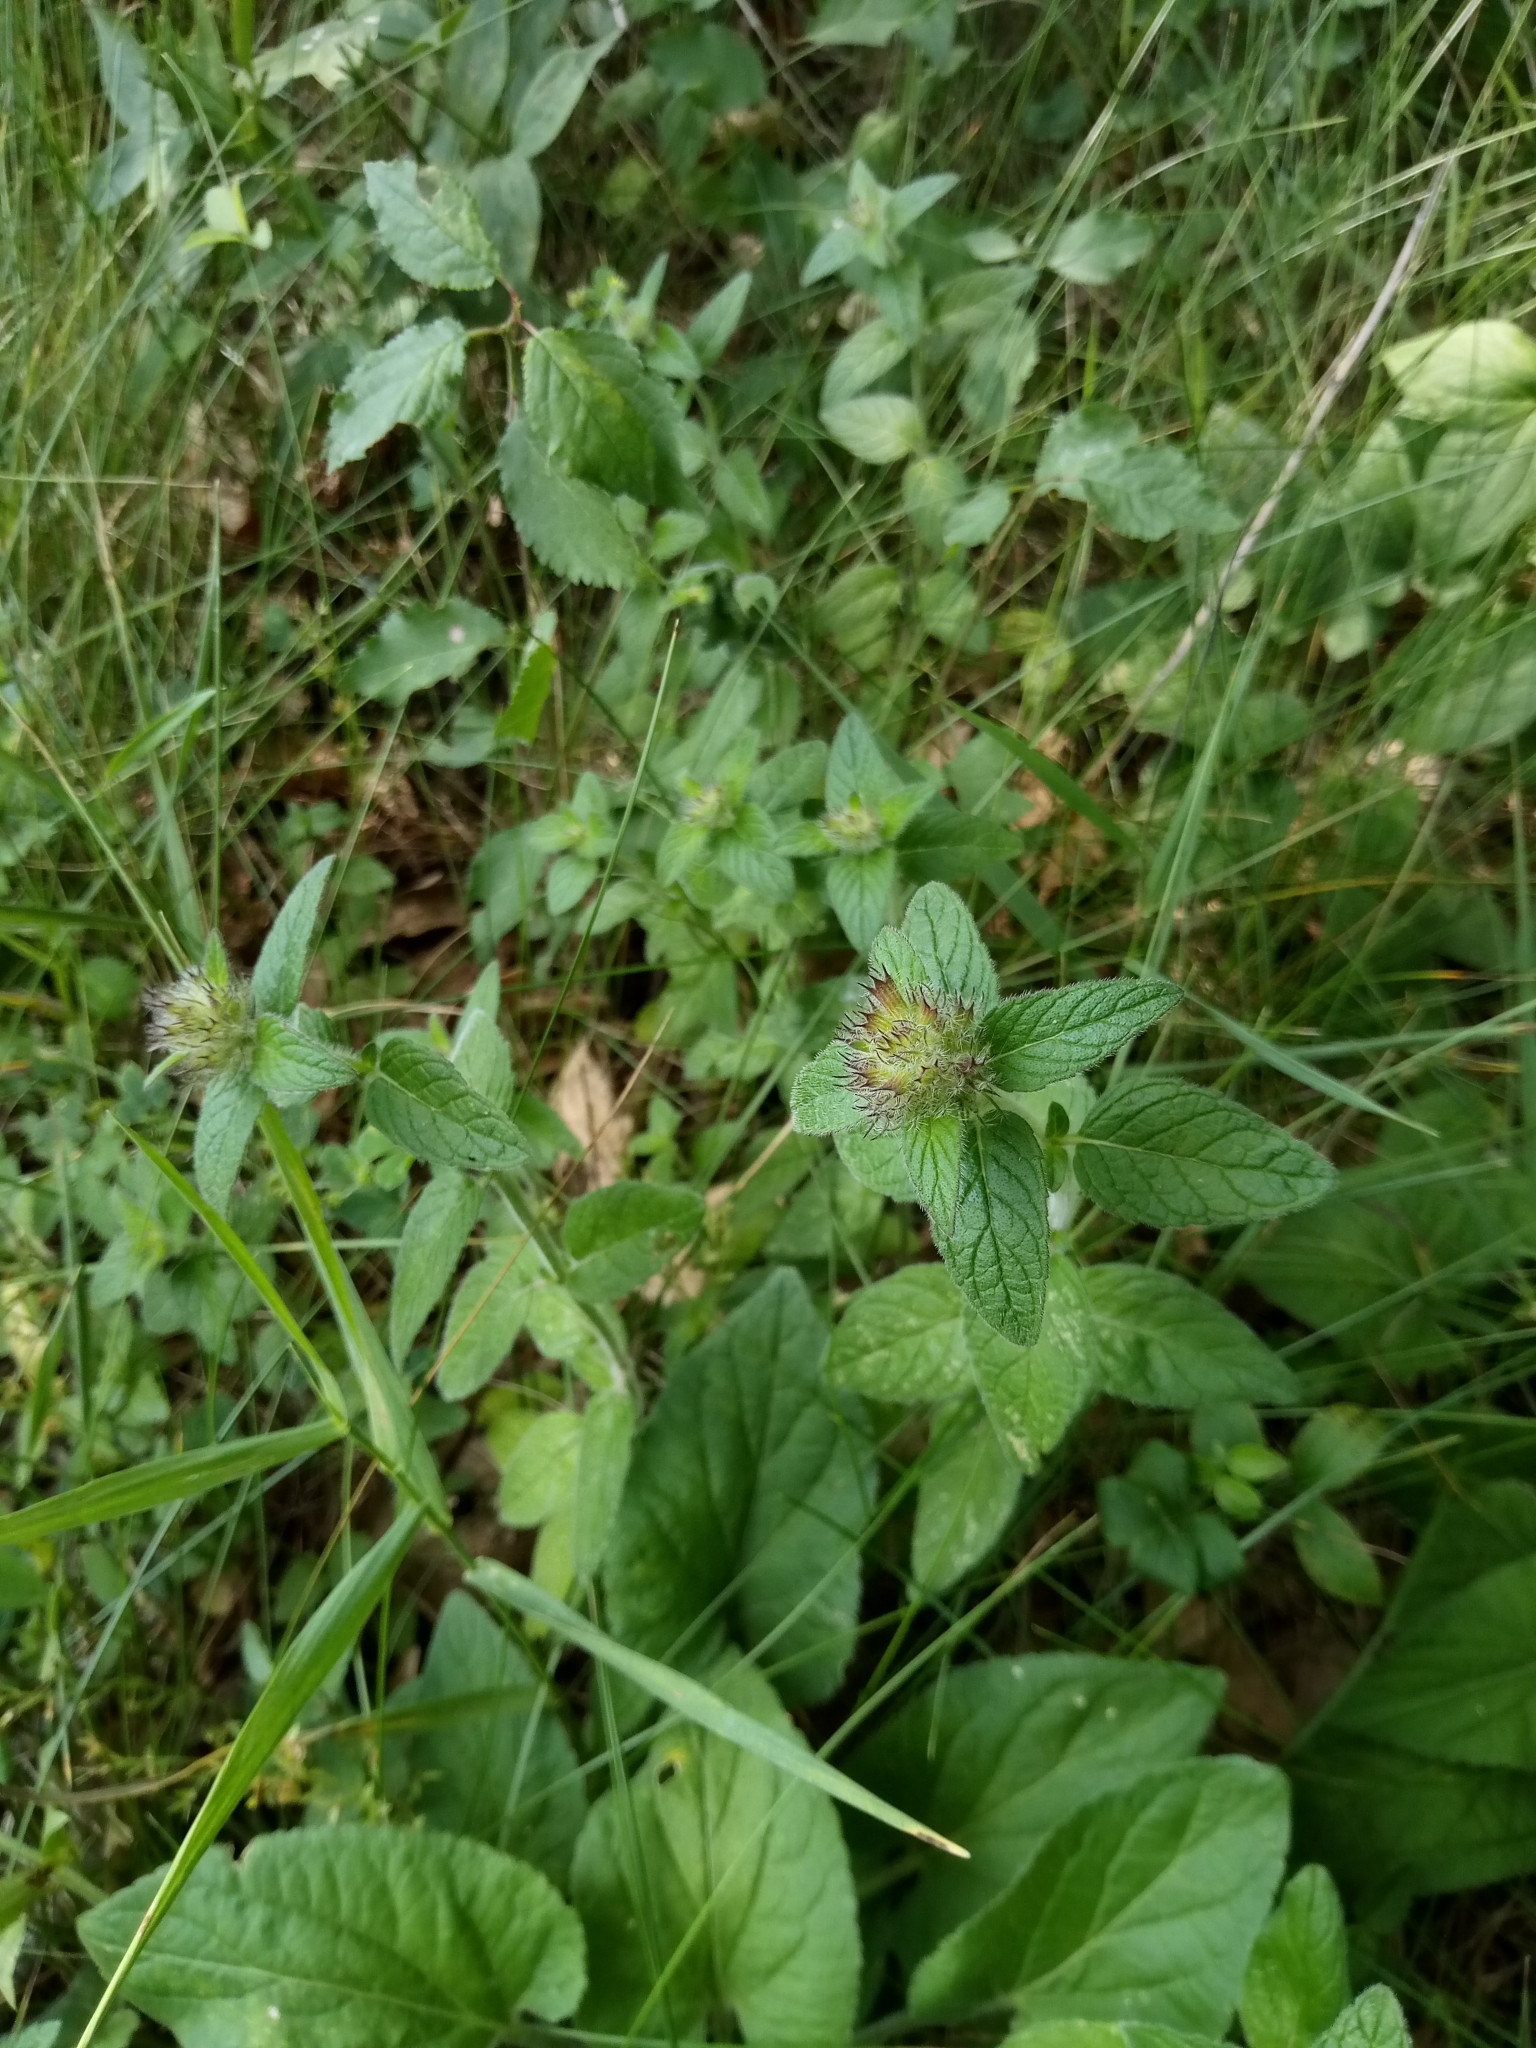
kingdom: Plantae
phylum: Tracheophyta
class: Magnoliopsida
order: Lamiales
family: Lamiaceae
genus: Clinopodium
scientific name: Clinopodium vulgare
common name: Wild basil
